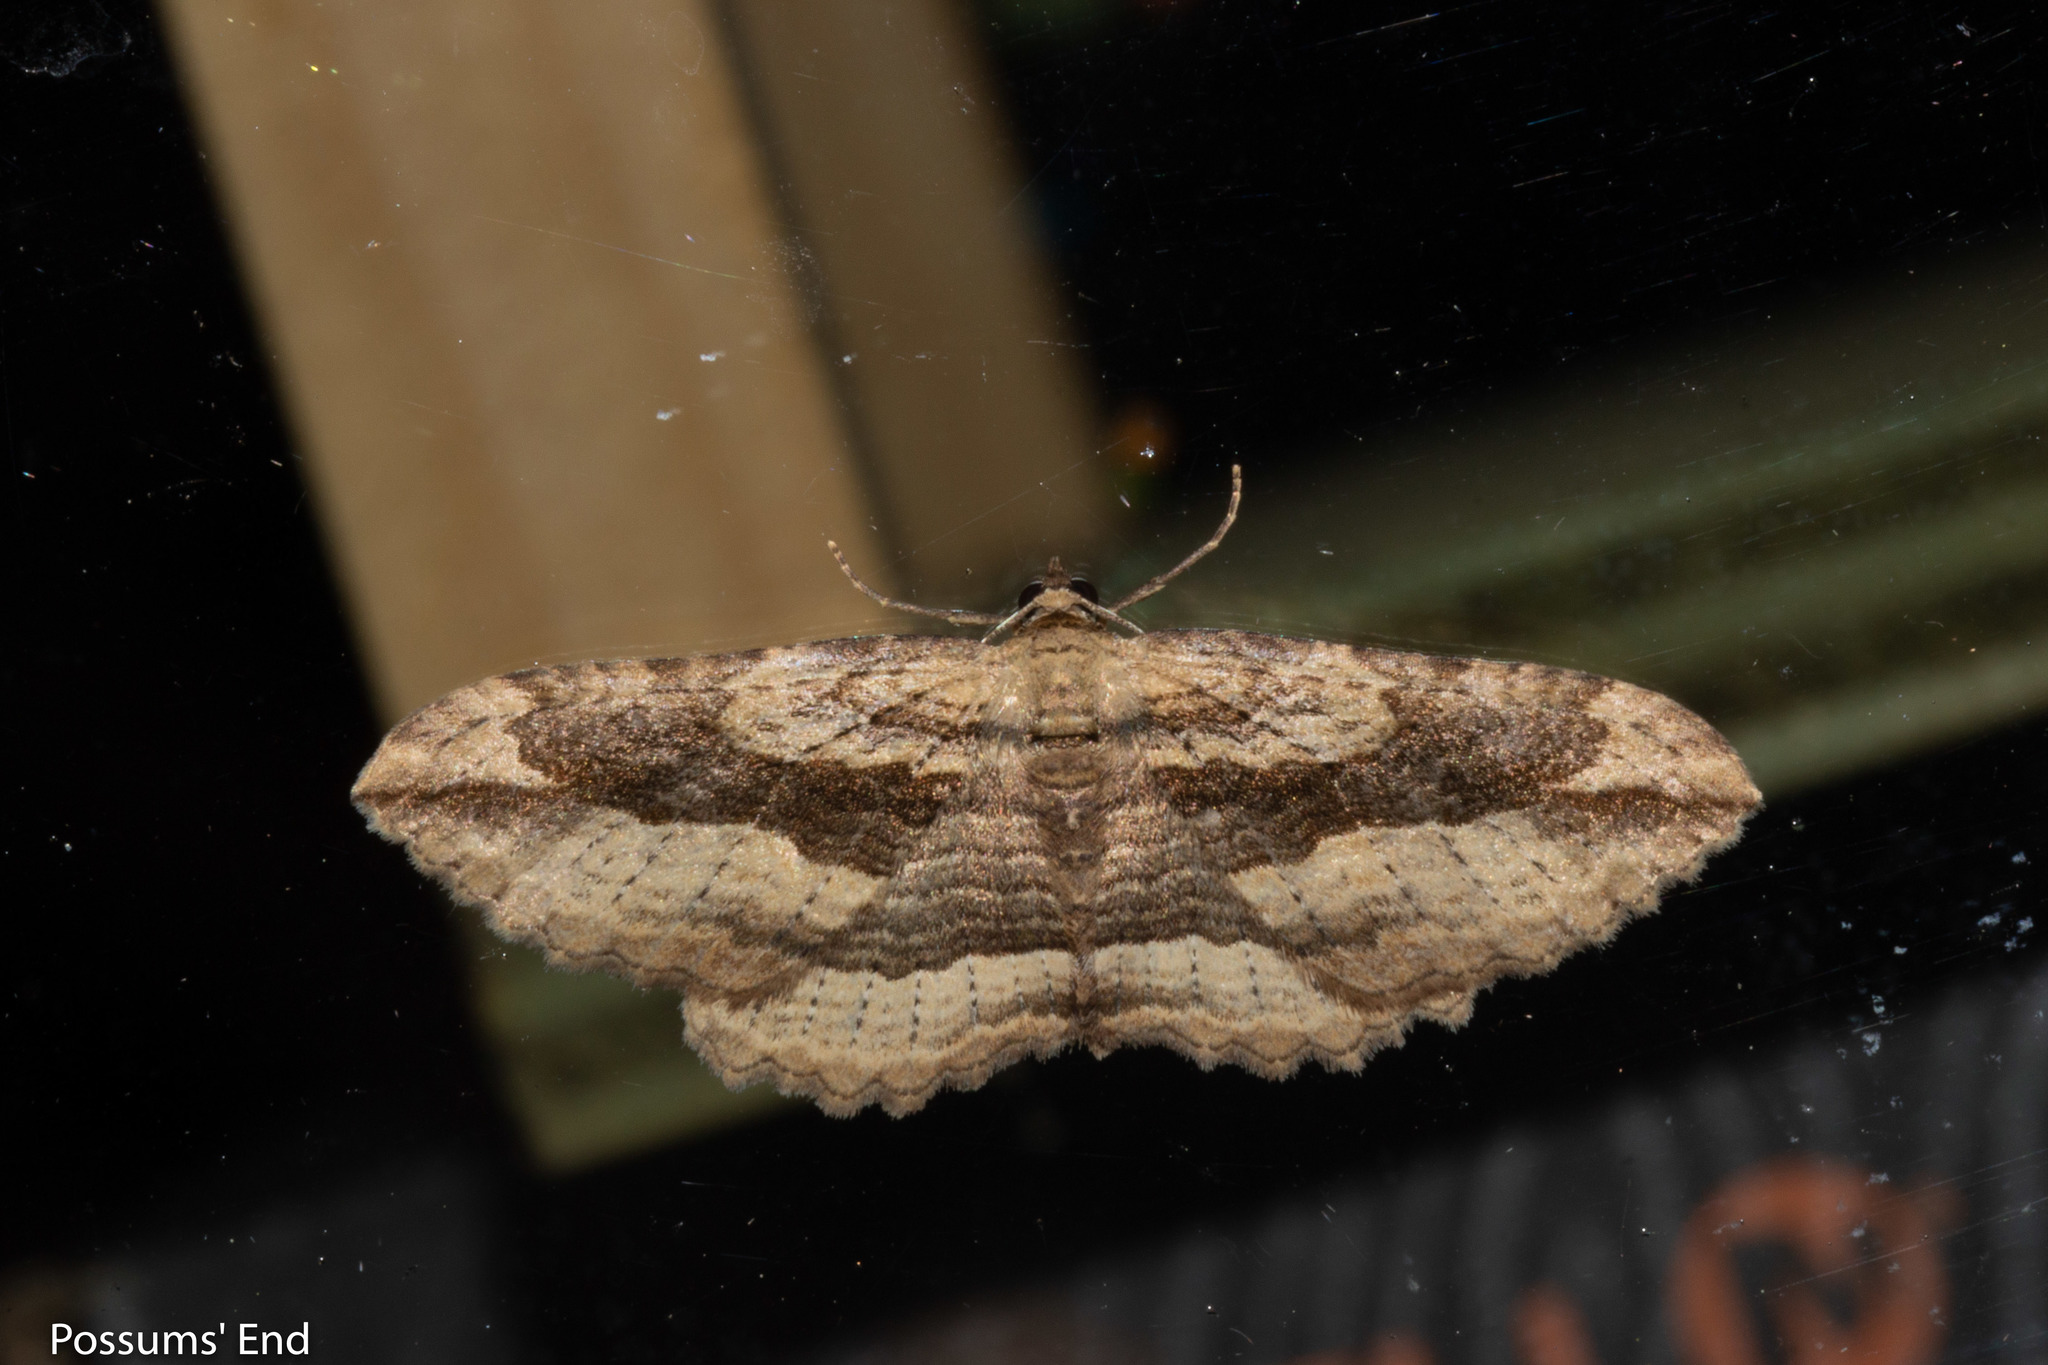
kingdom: Animalia
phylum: Arthropoda
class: Insecta
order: Lepidoptera
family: Geometridae
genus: Austrocidaria
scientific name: Austrocidaria gobiata
